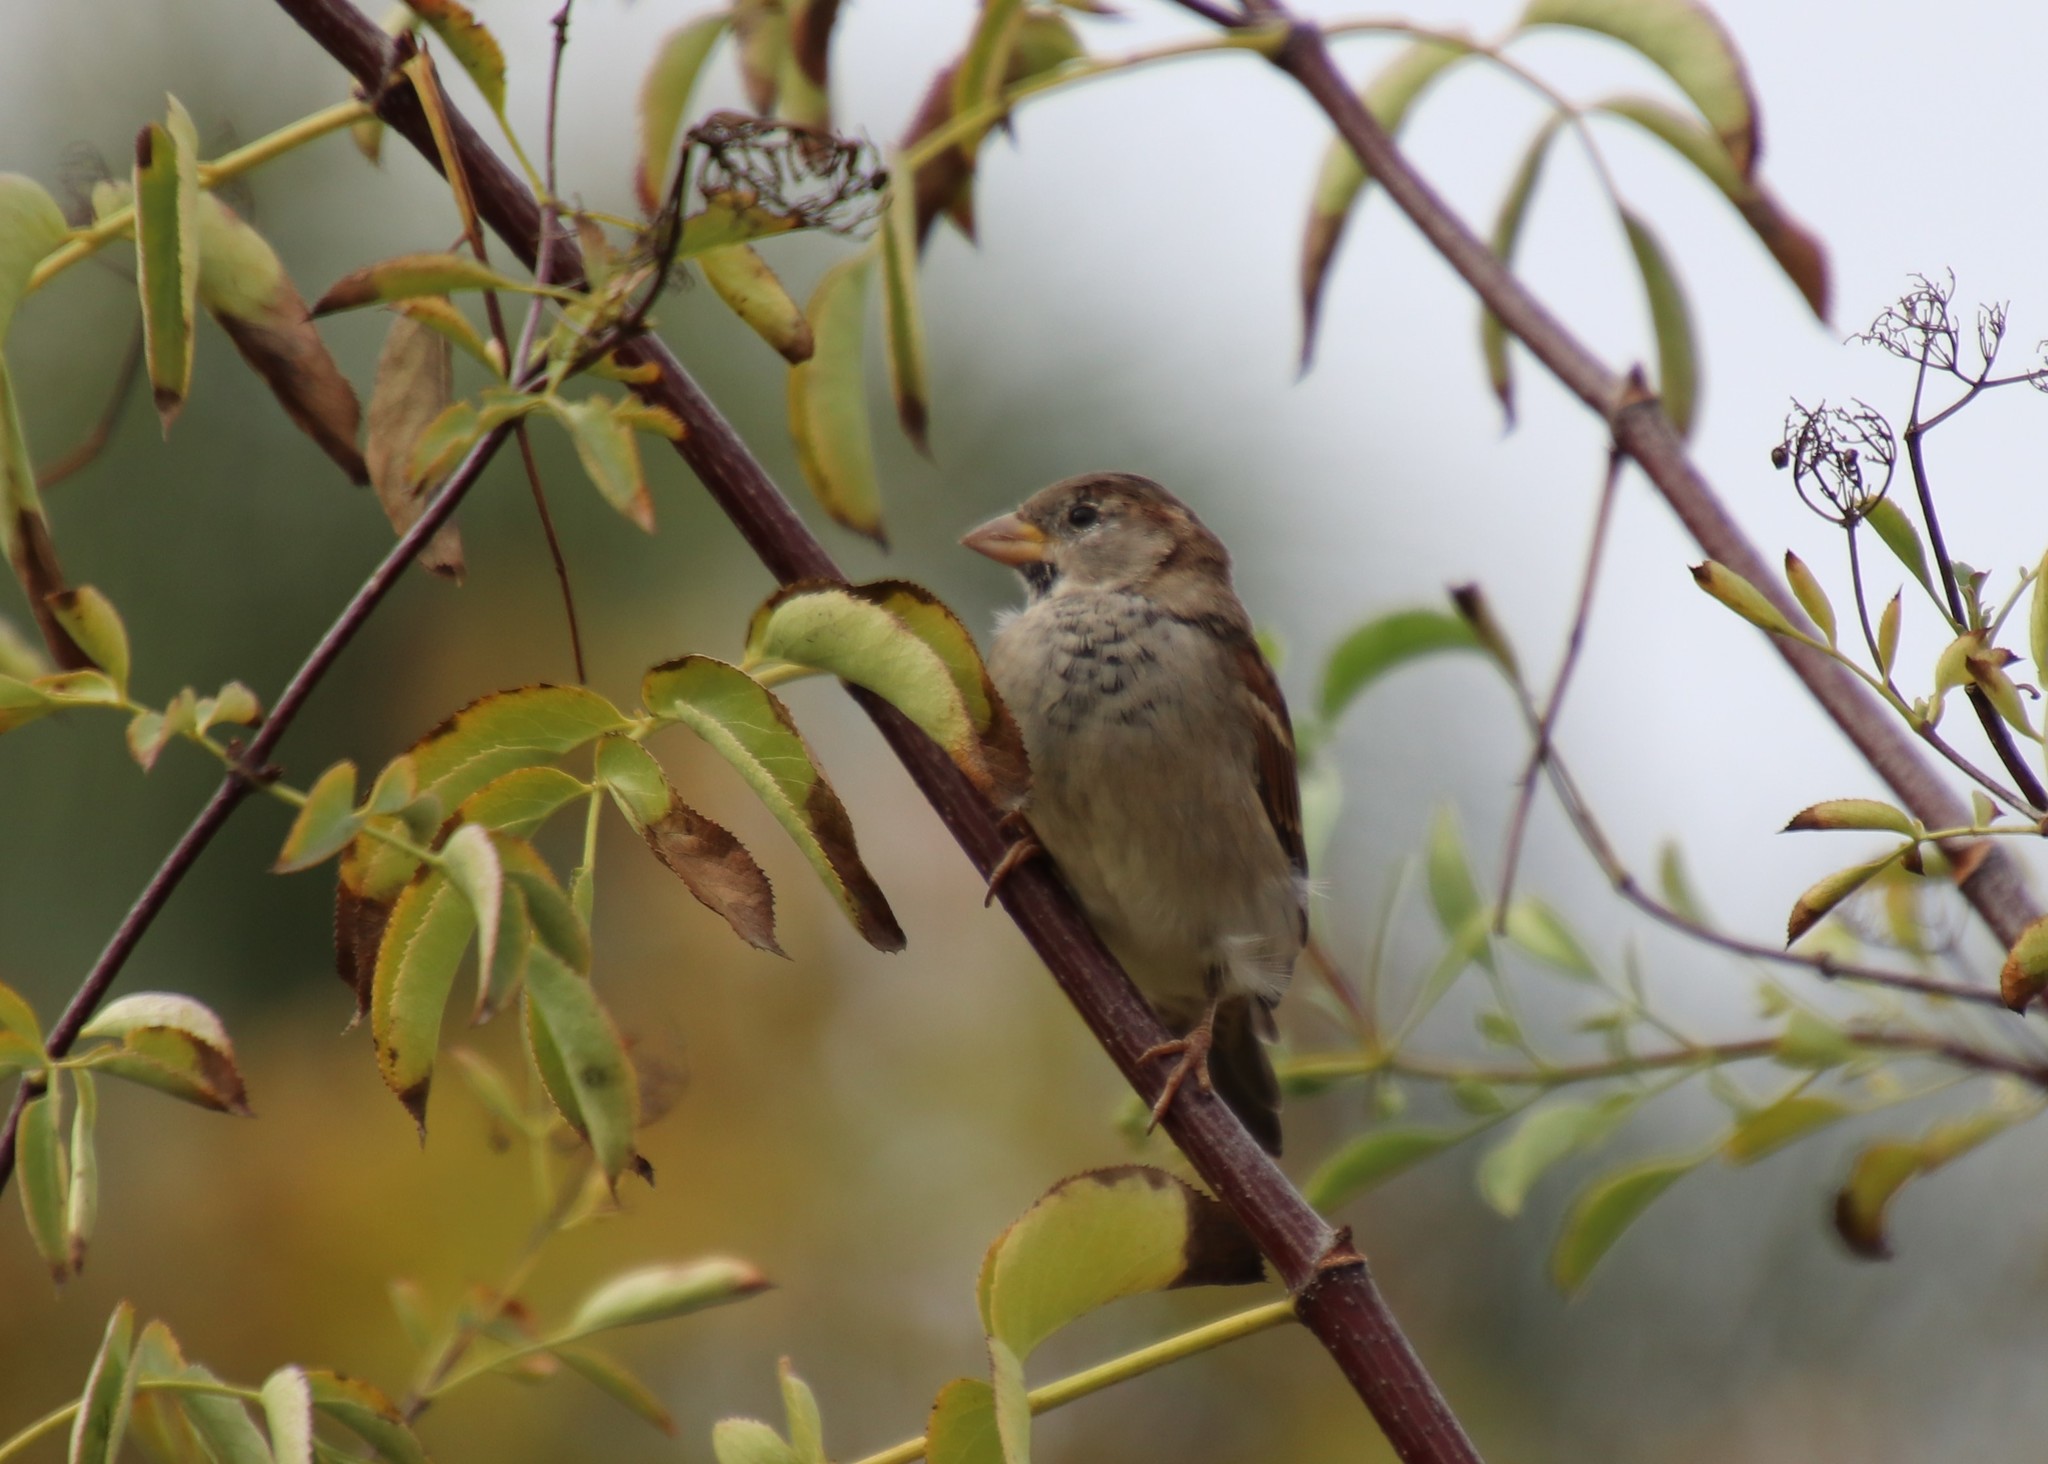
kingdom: Animalia
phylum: Chordata
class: Aves
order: Passeriformes
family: Passeridae
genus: Passer
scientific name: Passer domesticus
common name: House sparrow
